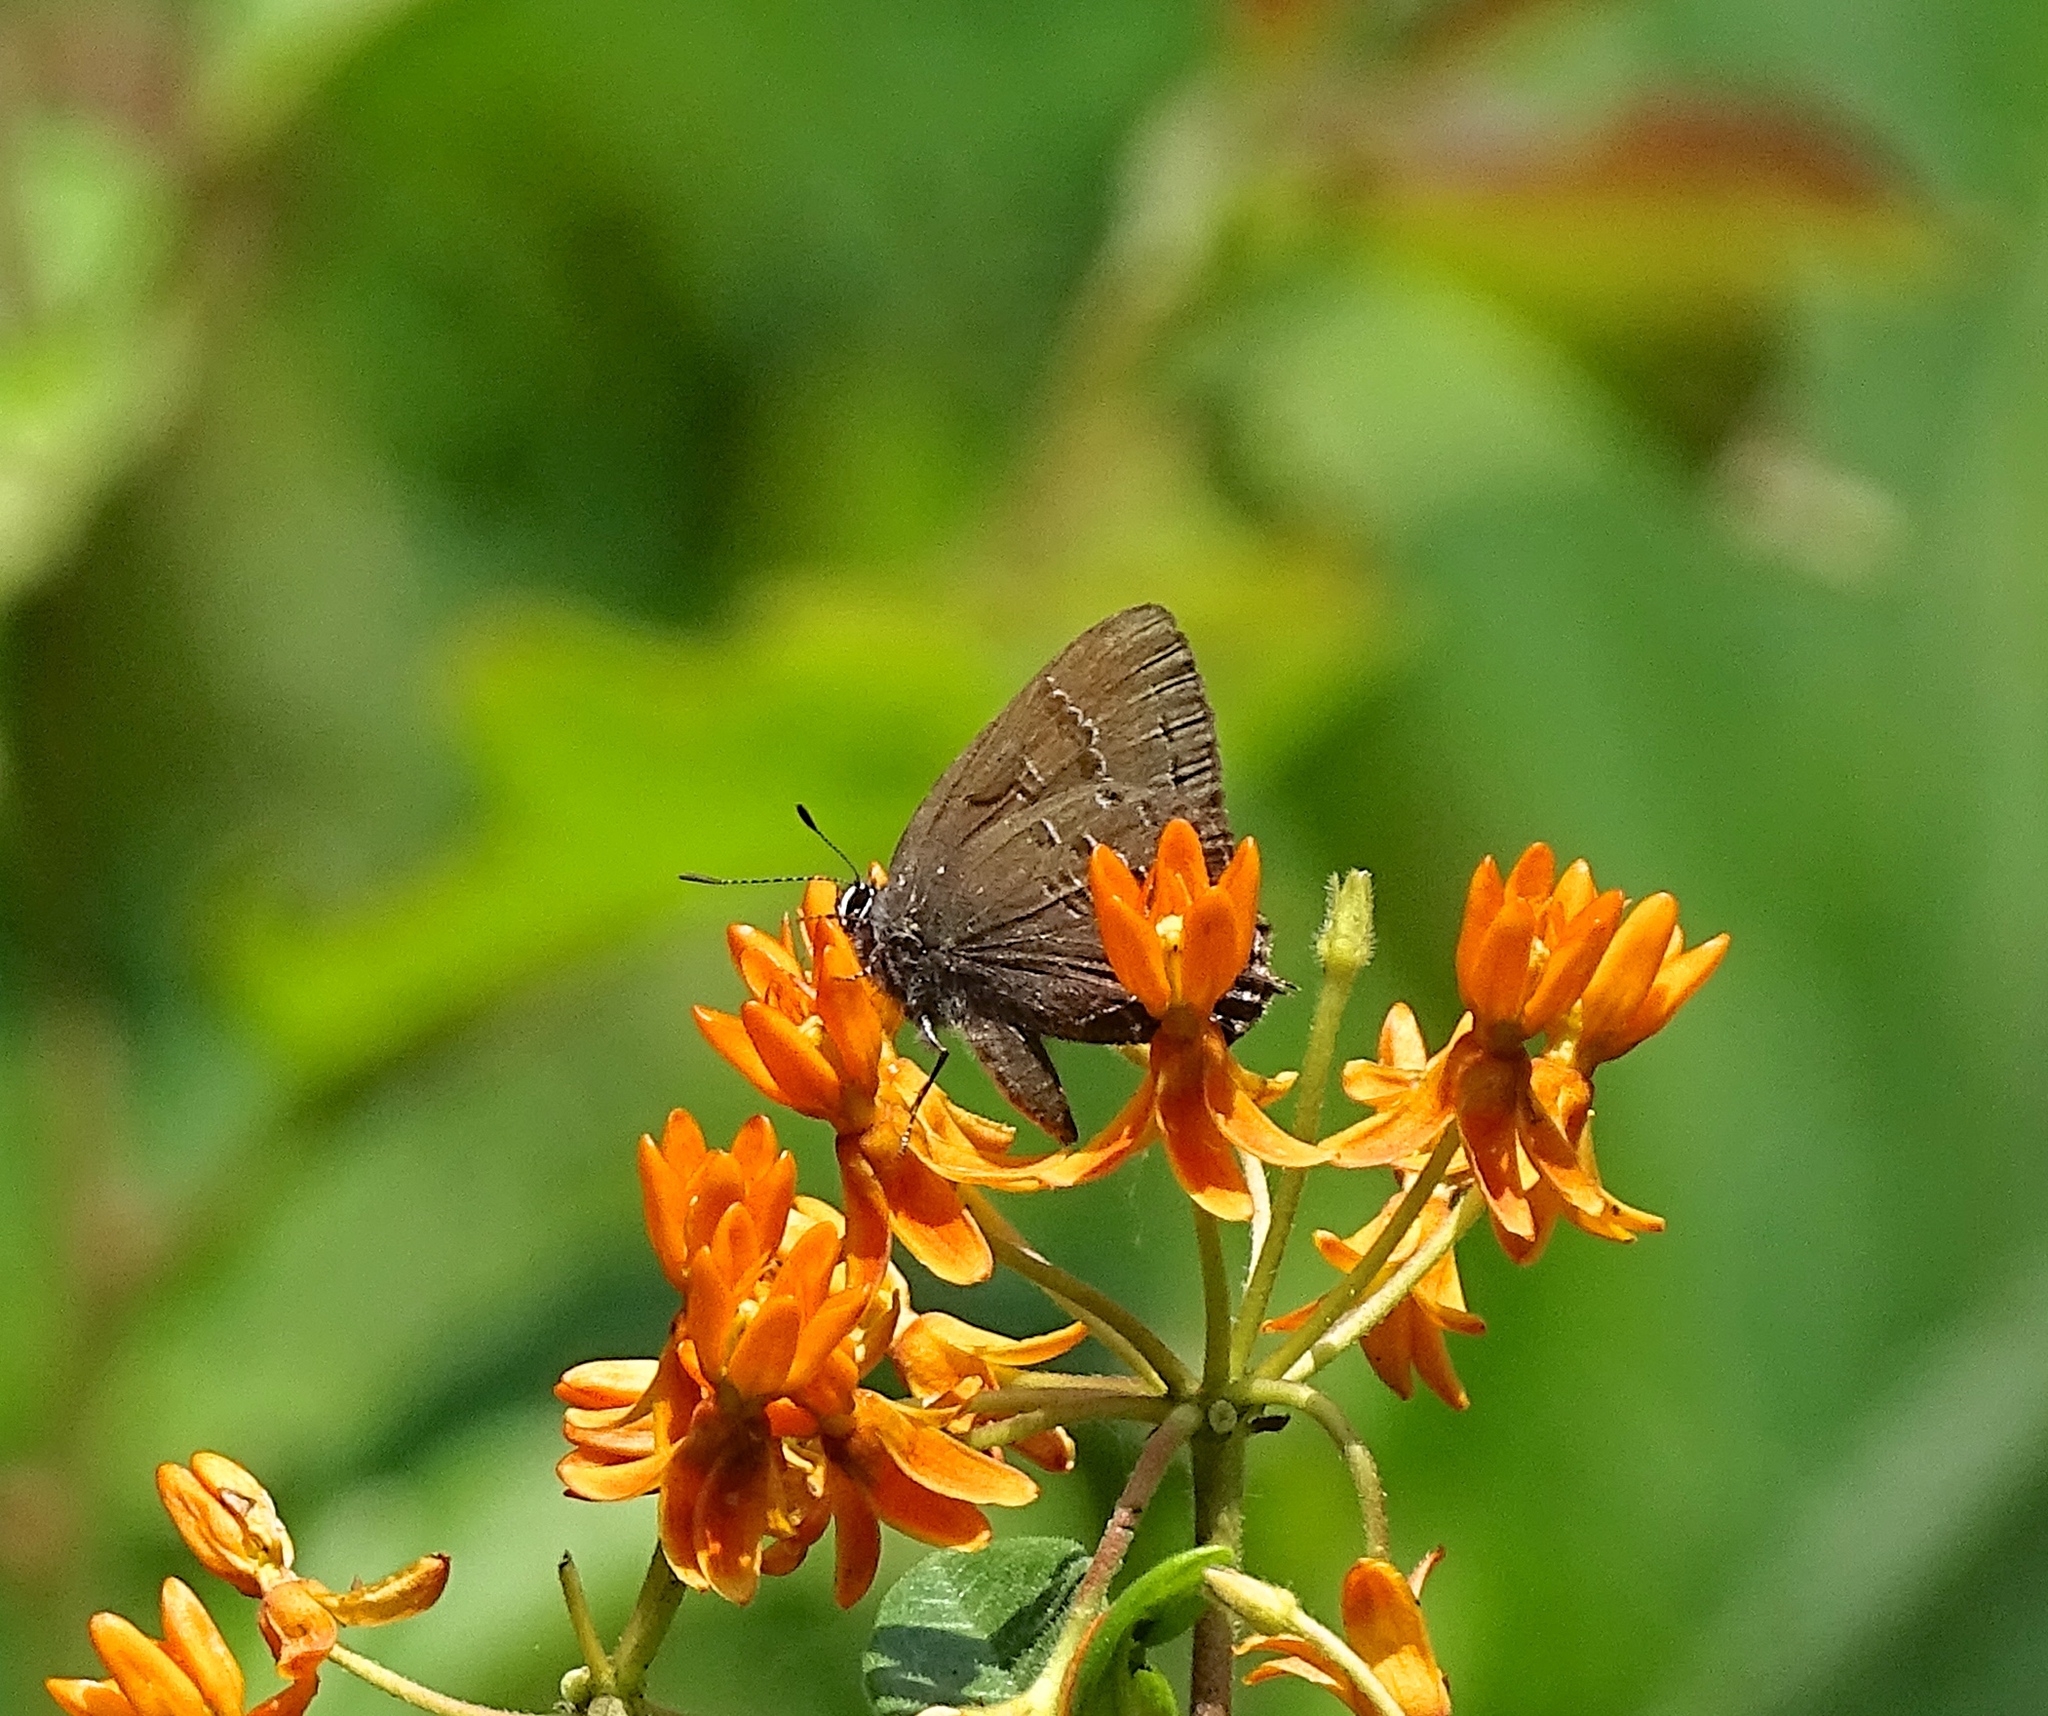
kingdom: Animalia
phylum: Arthropoda
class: Insecta
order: Lepidoptera
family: Lycaenidae
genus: Satyrium
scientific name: Satyrium calanus
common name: Banded hairstreak
